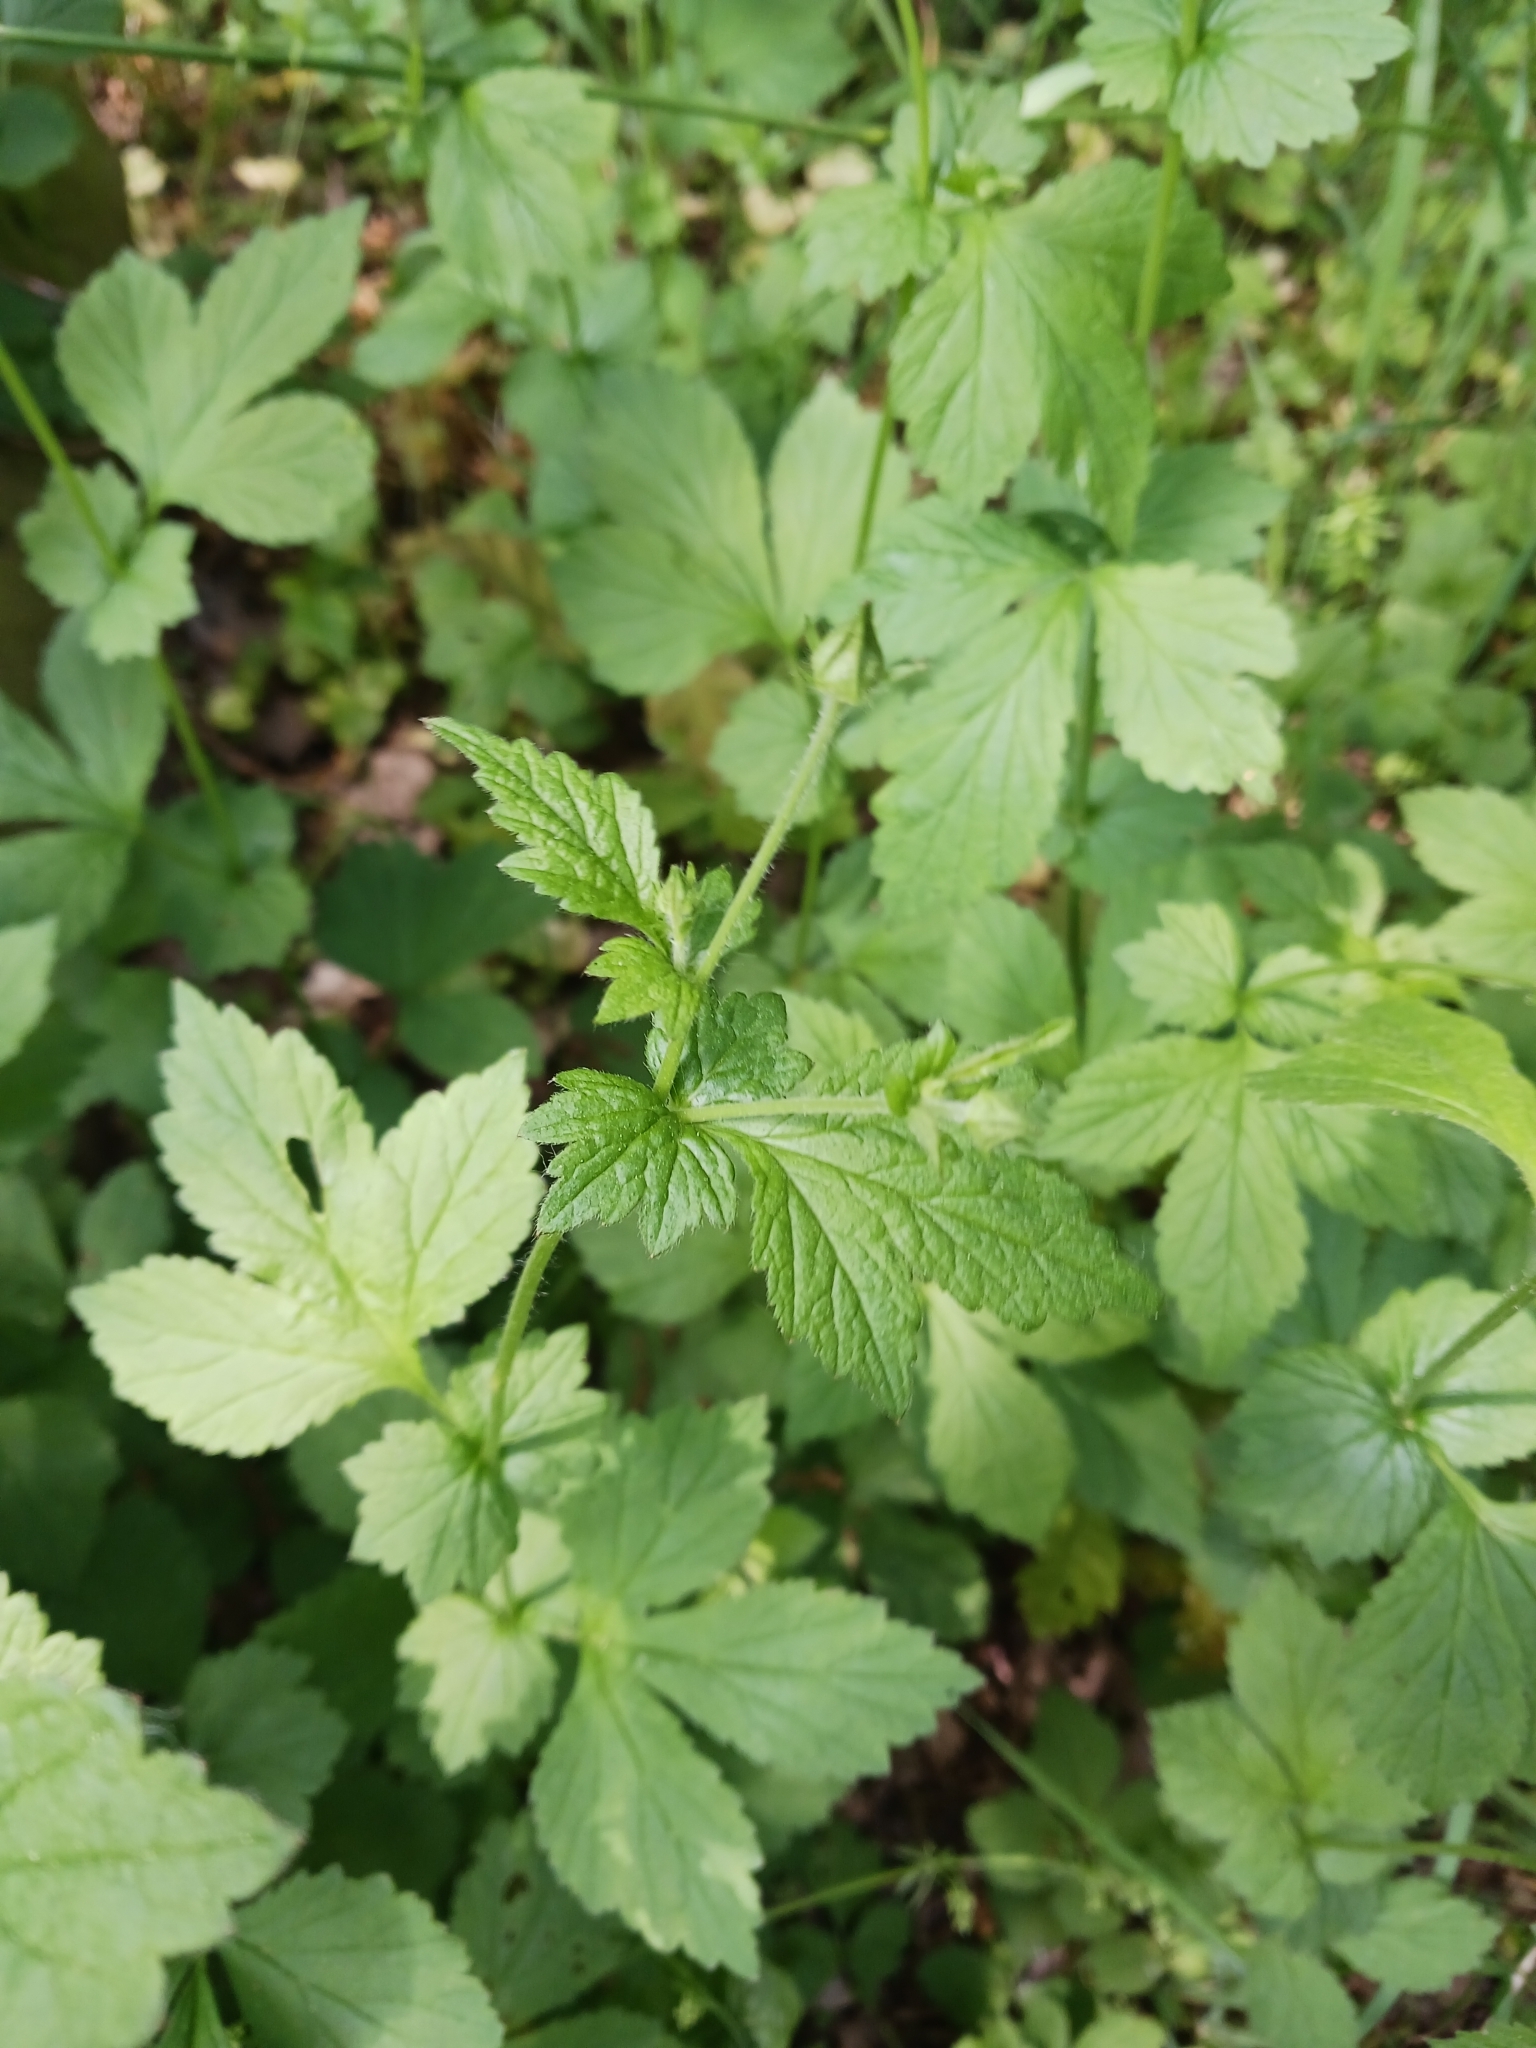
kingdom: Plantae
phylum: Tracheophyta
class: Magnoliopsida
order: Rosales
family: Rosaceae
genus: Geum
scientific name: Geum urbanum
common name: Wood avens
